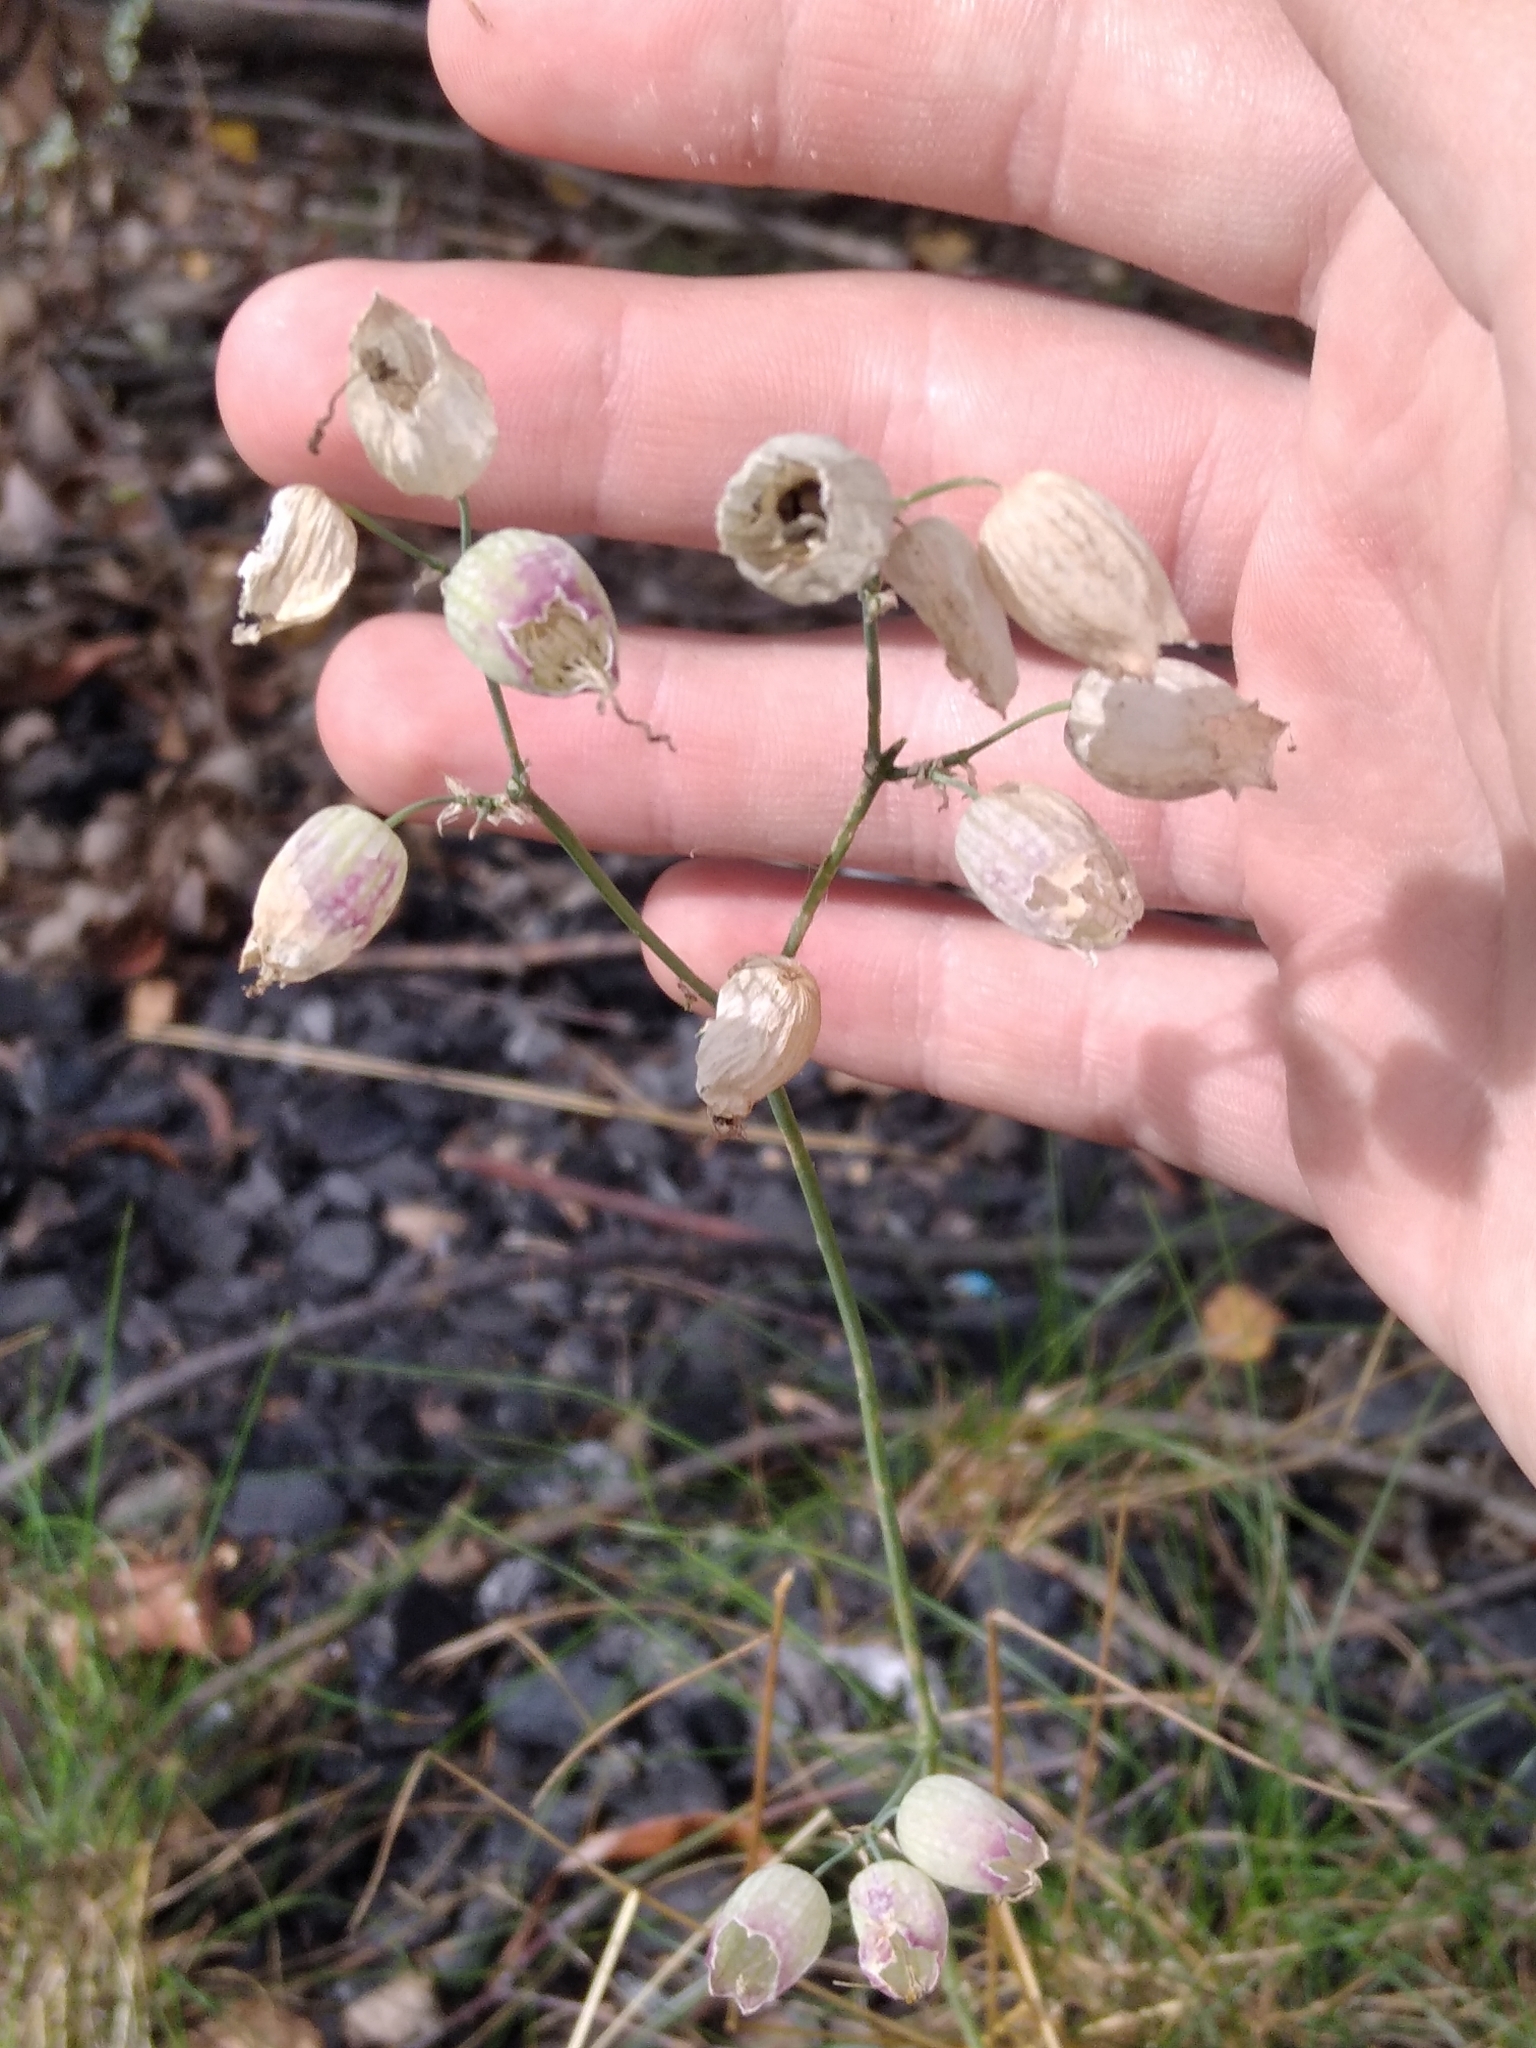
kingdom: Plantae
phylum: Tracheophyta
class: Magnoliopsida
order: Caryophyllales
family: Caryophyllaceae
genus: Silene
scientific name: Silene vulgaris
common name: Bladder campion
